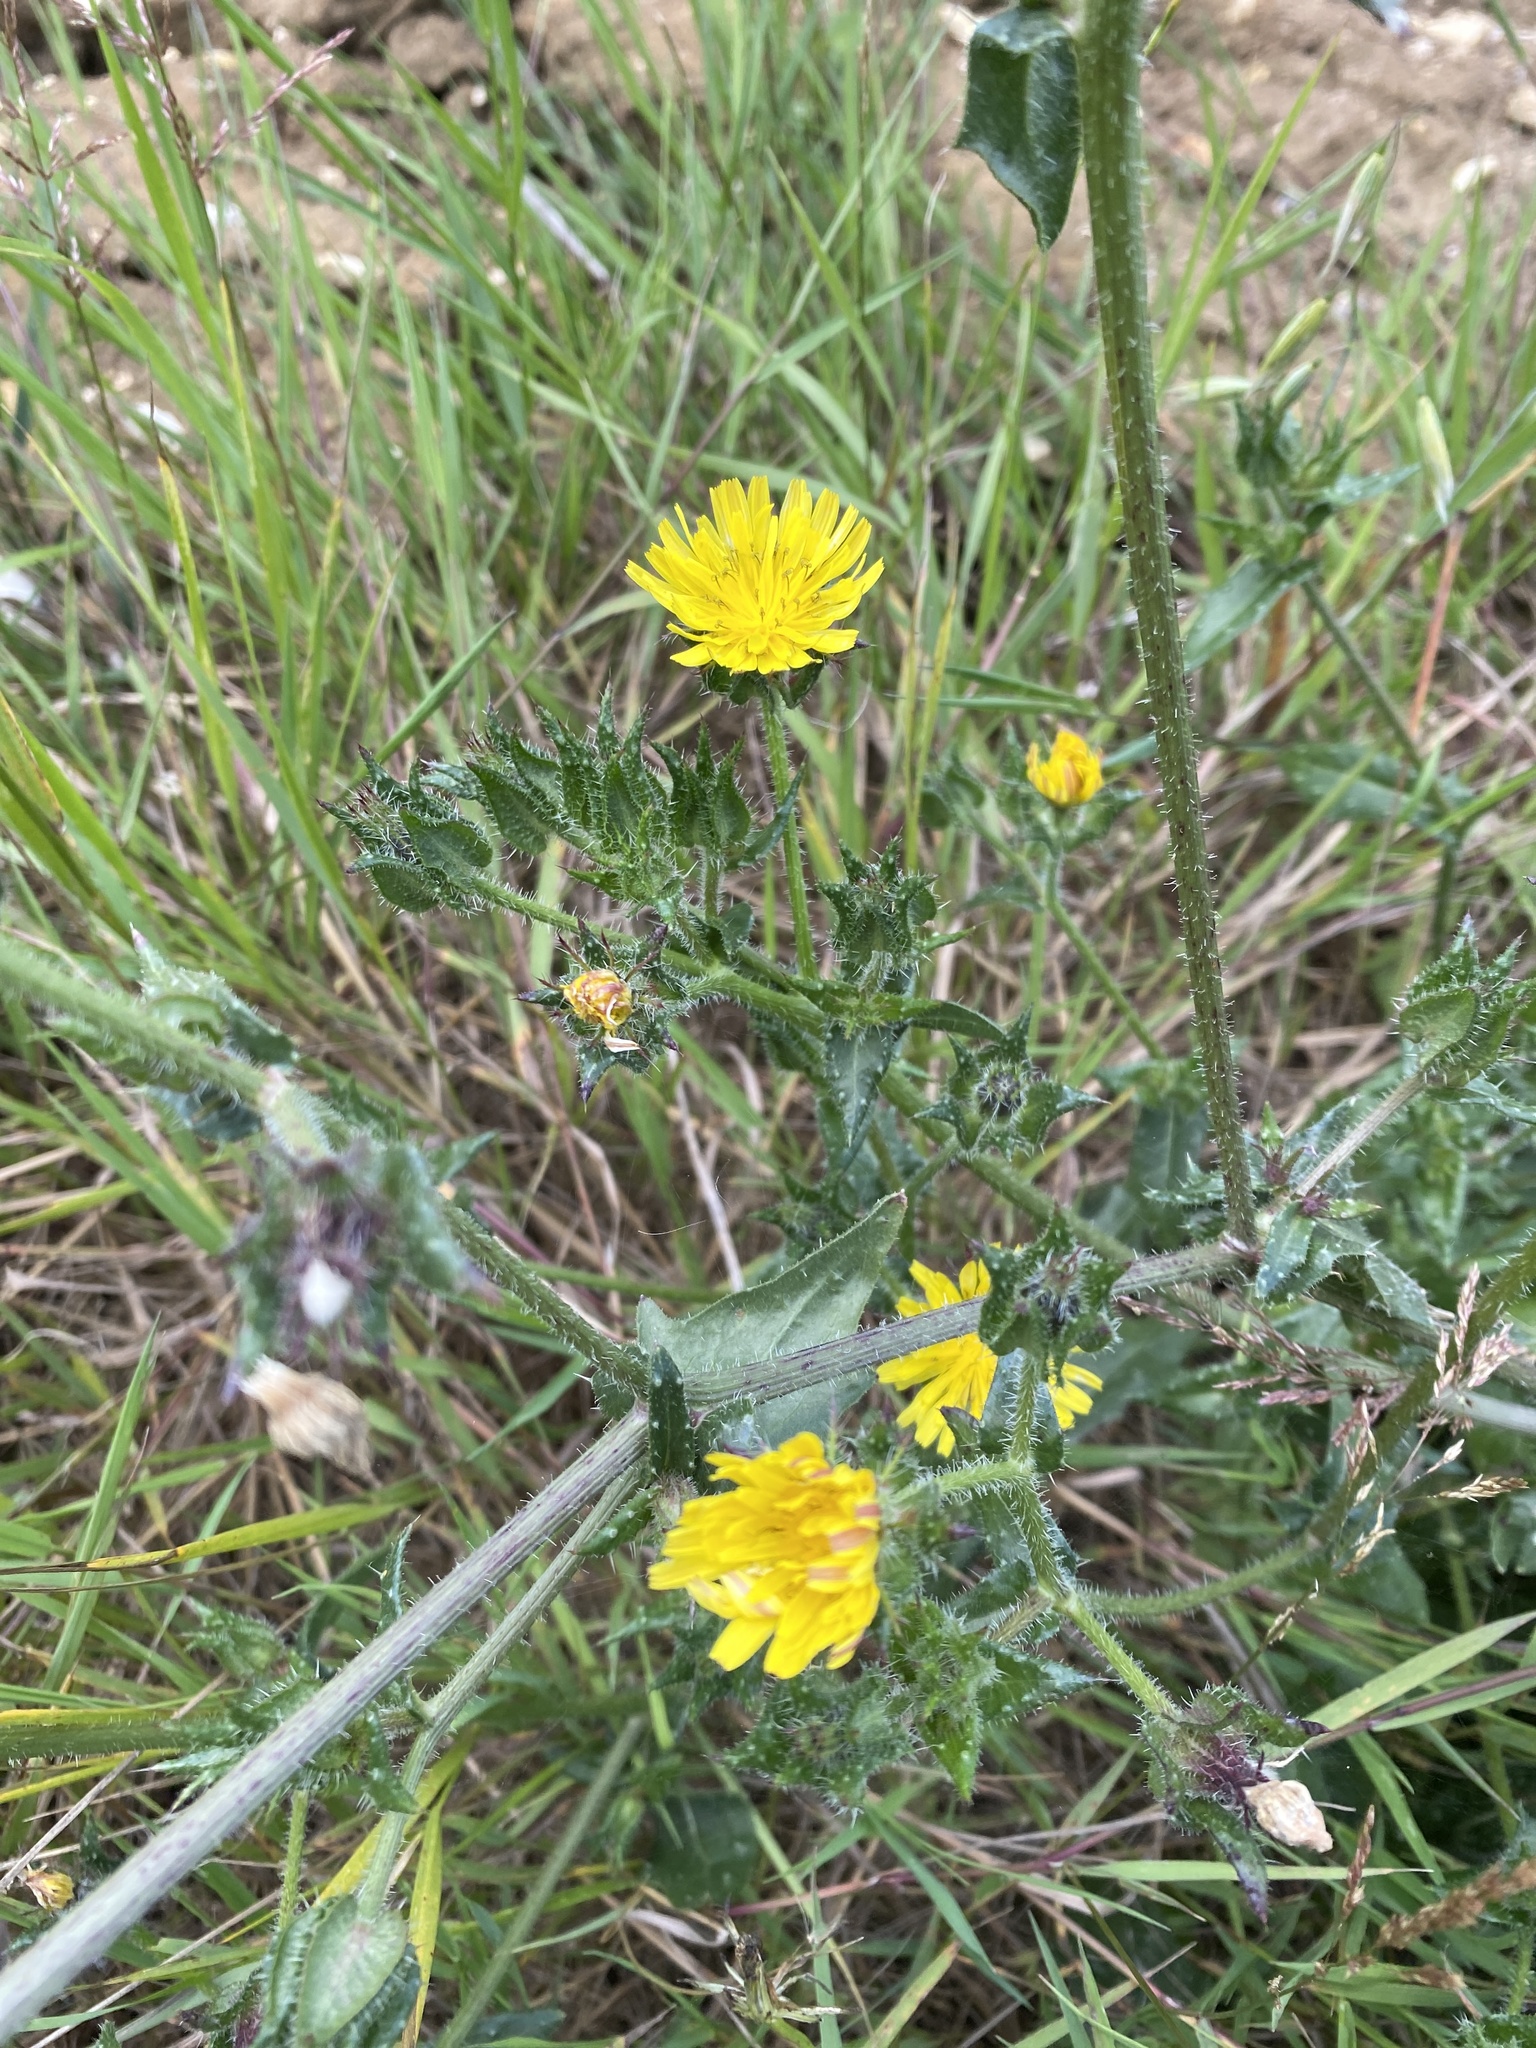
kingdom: Plantae
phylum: Tracheophyta
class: Magnoliopsida
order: Asterales
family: Asteraceae
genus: Helminthotheca
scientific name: Helminthotheca echioides
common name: Ox-tongue
